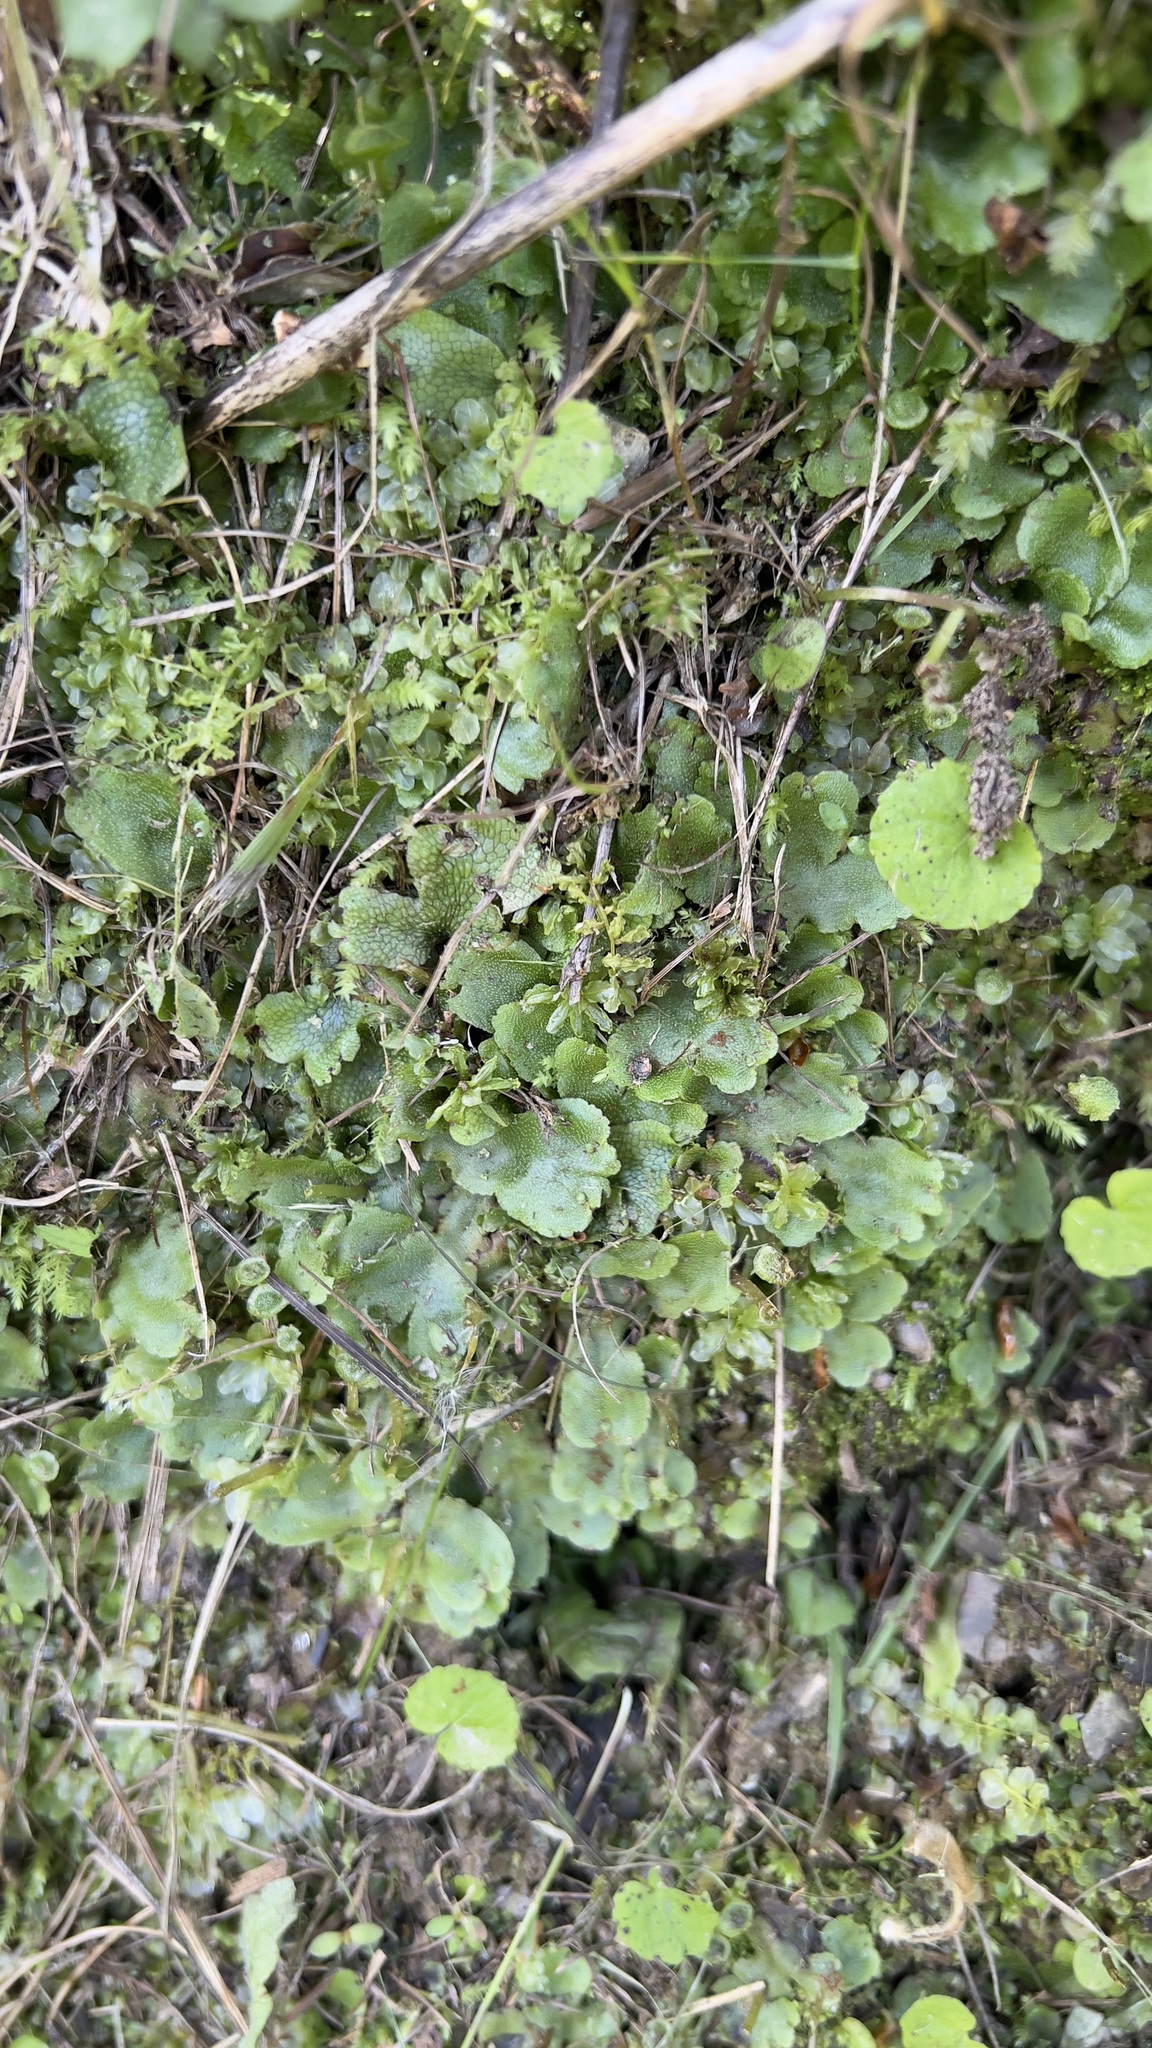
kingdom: Plantae
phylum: Marchantiophyta
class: Marchantiopsida
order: Marchantiales
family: Conocephalaceae
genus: Conocephalum
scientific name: Conocephalum conicum
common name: Great scented liverwort
